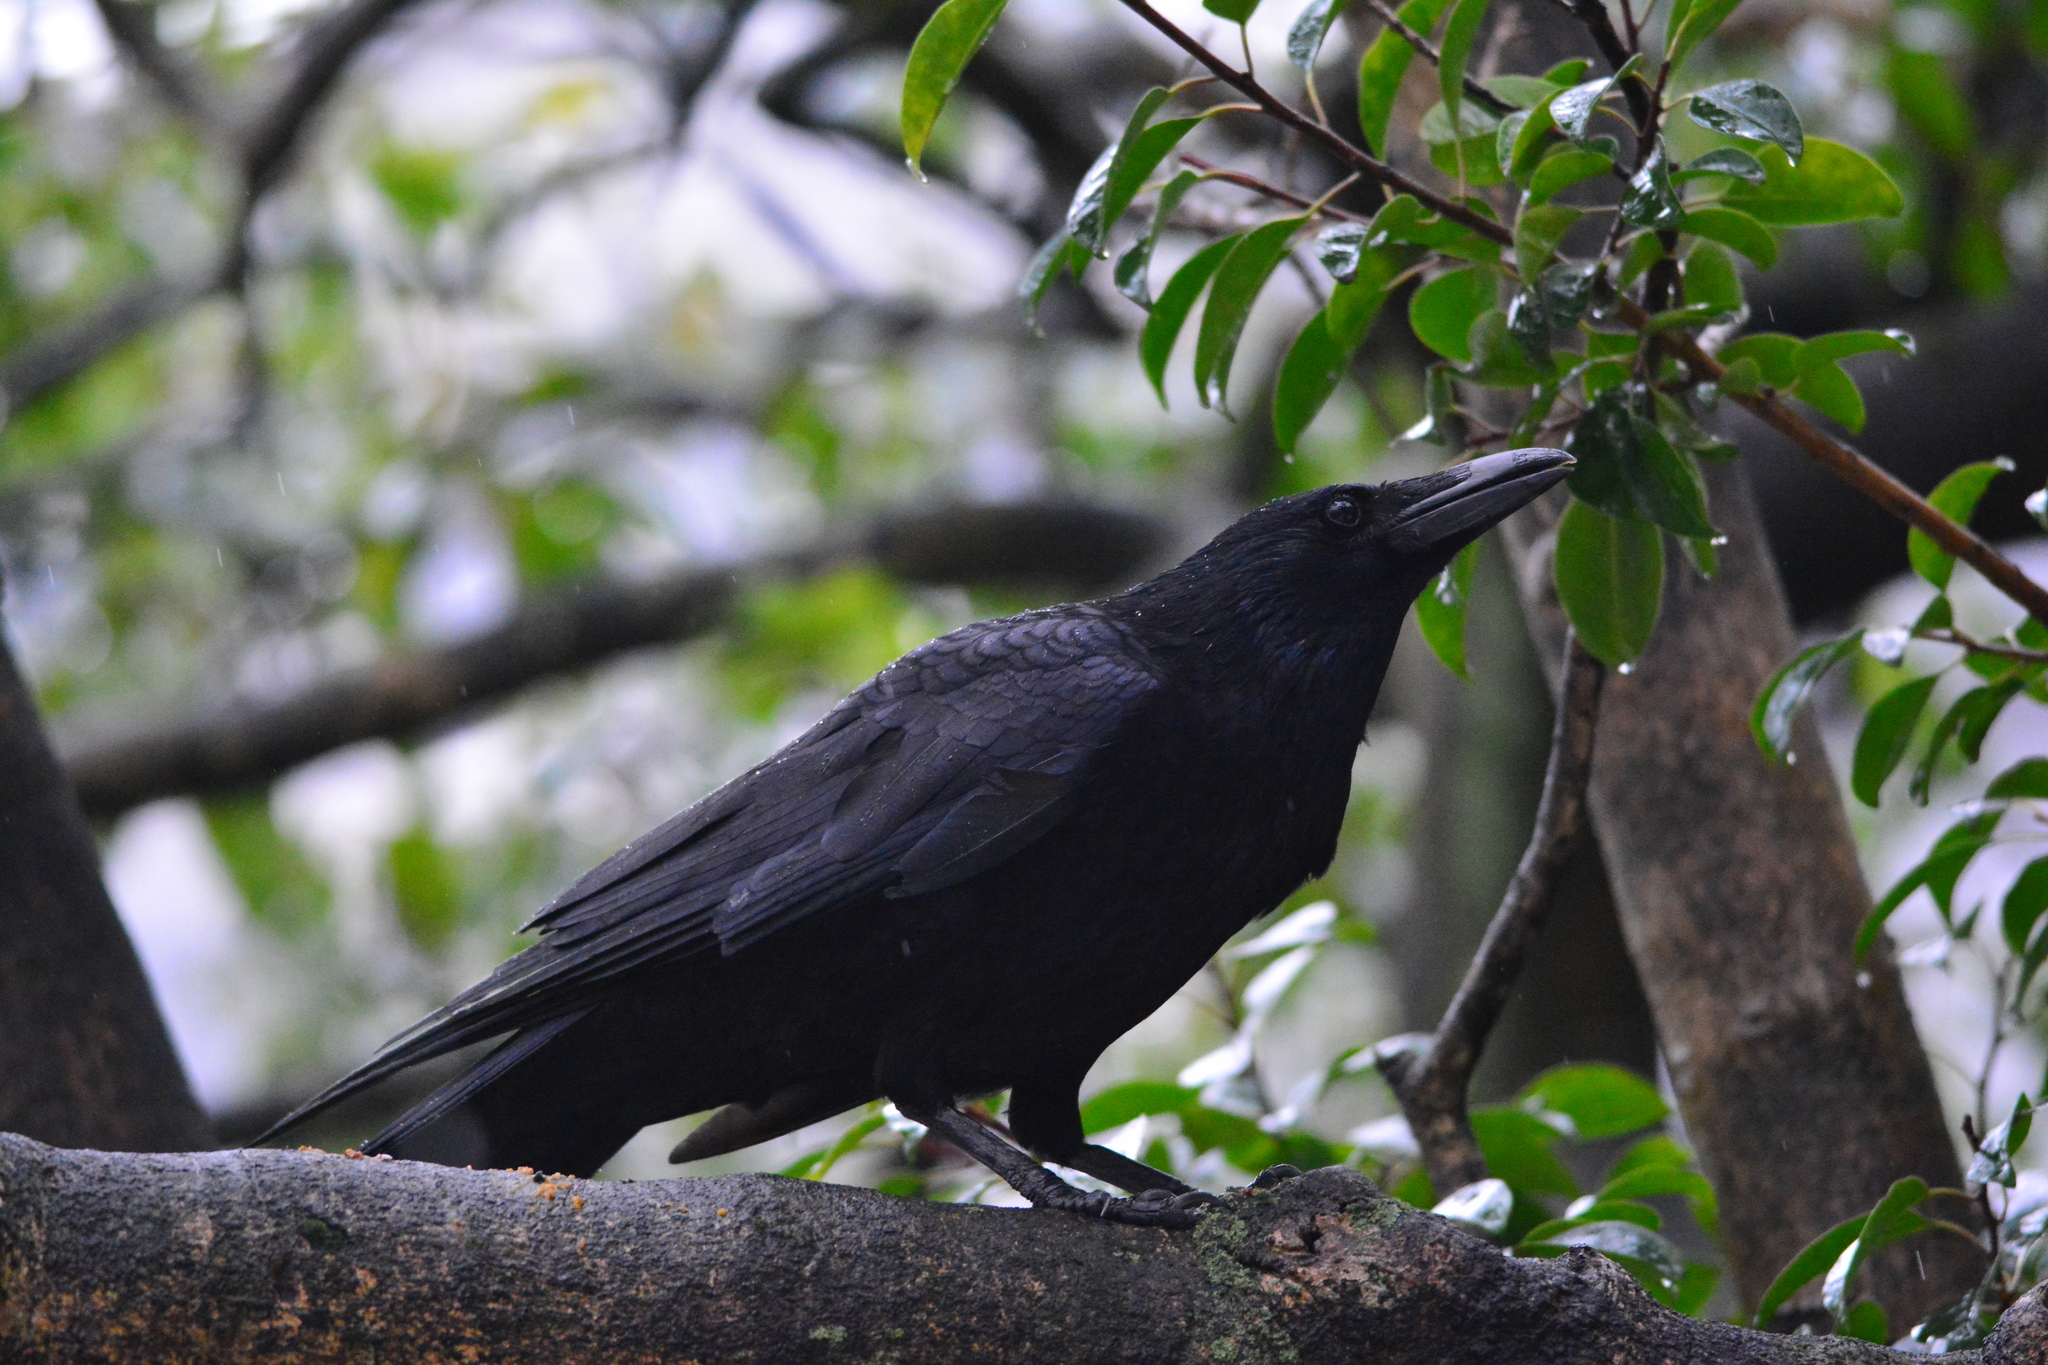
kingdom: Animalia
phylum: Chordata
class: Aves
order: Passeriformes
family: Corvidae
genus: Corvus
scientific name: Corvus macrorhynchos
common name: Large-billed crow
